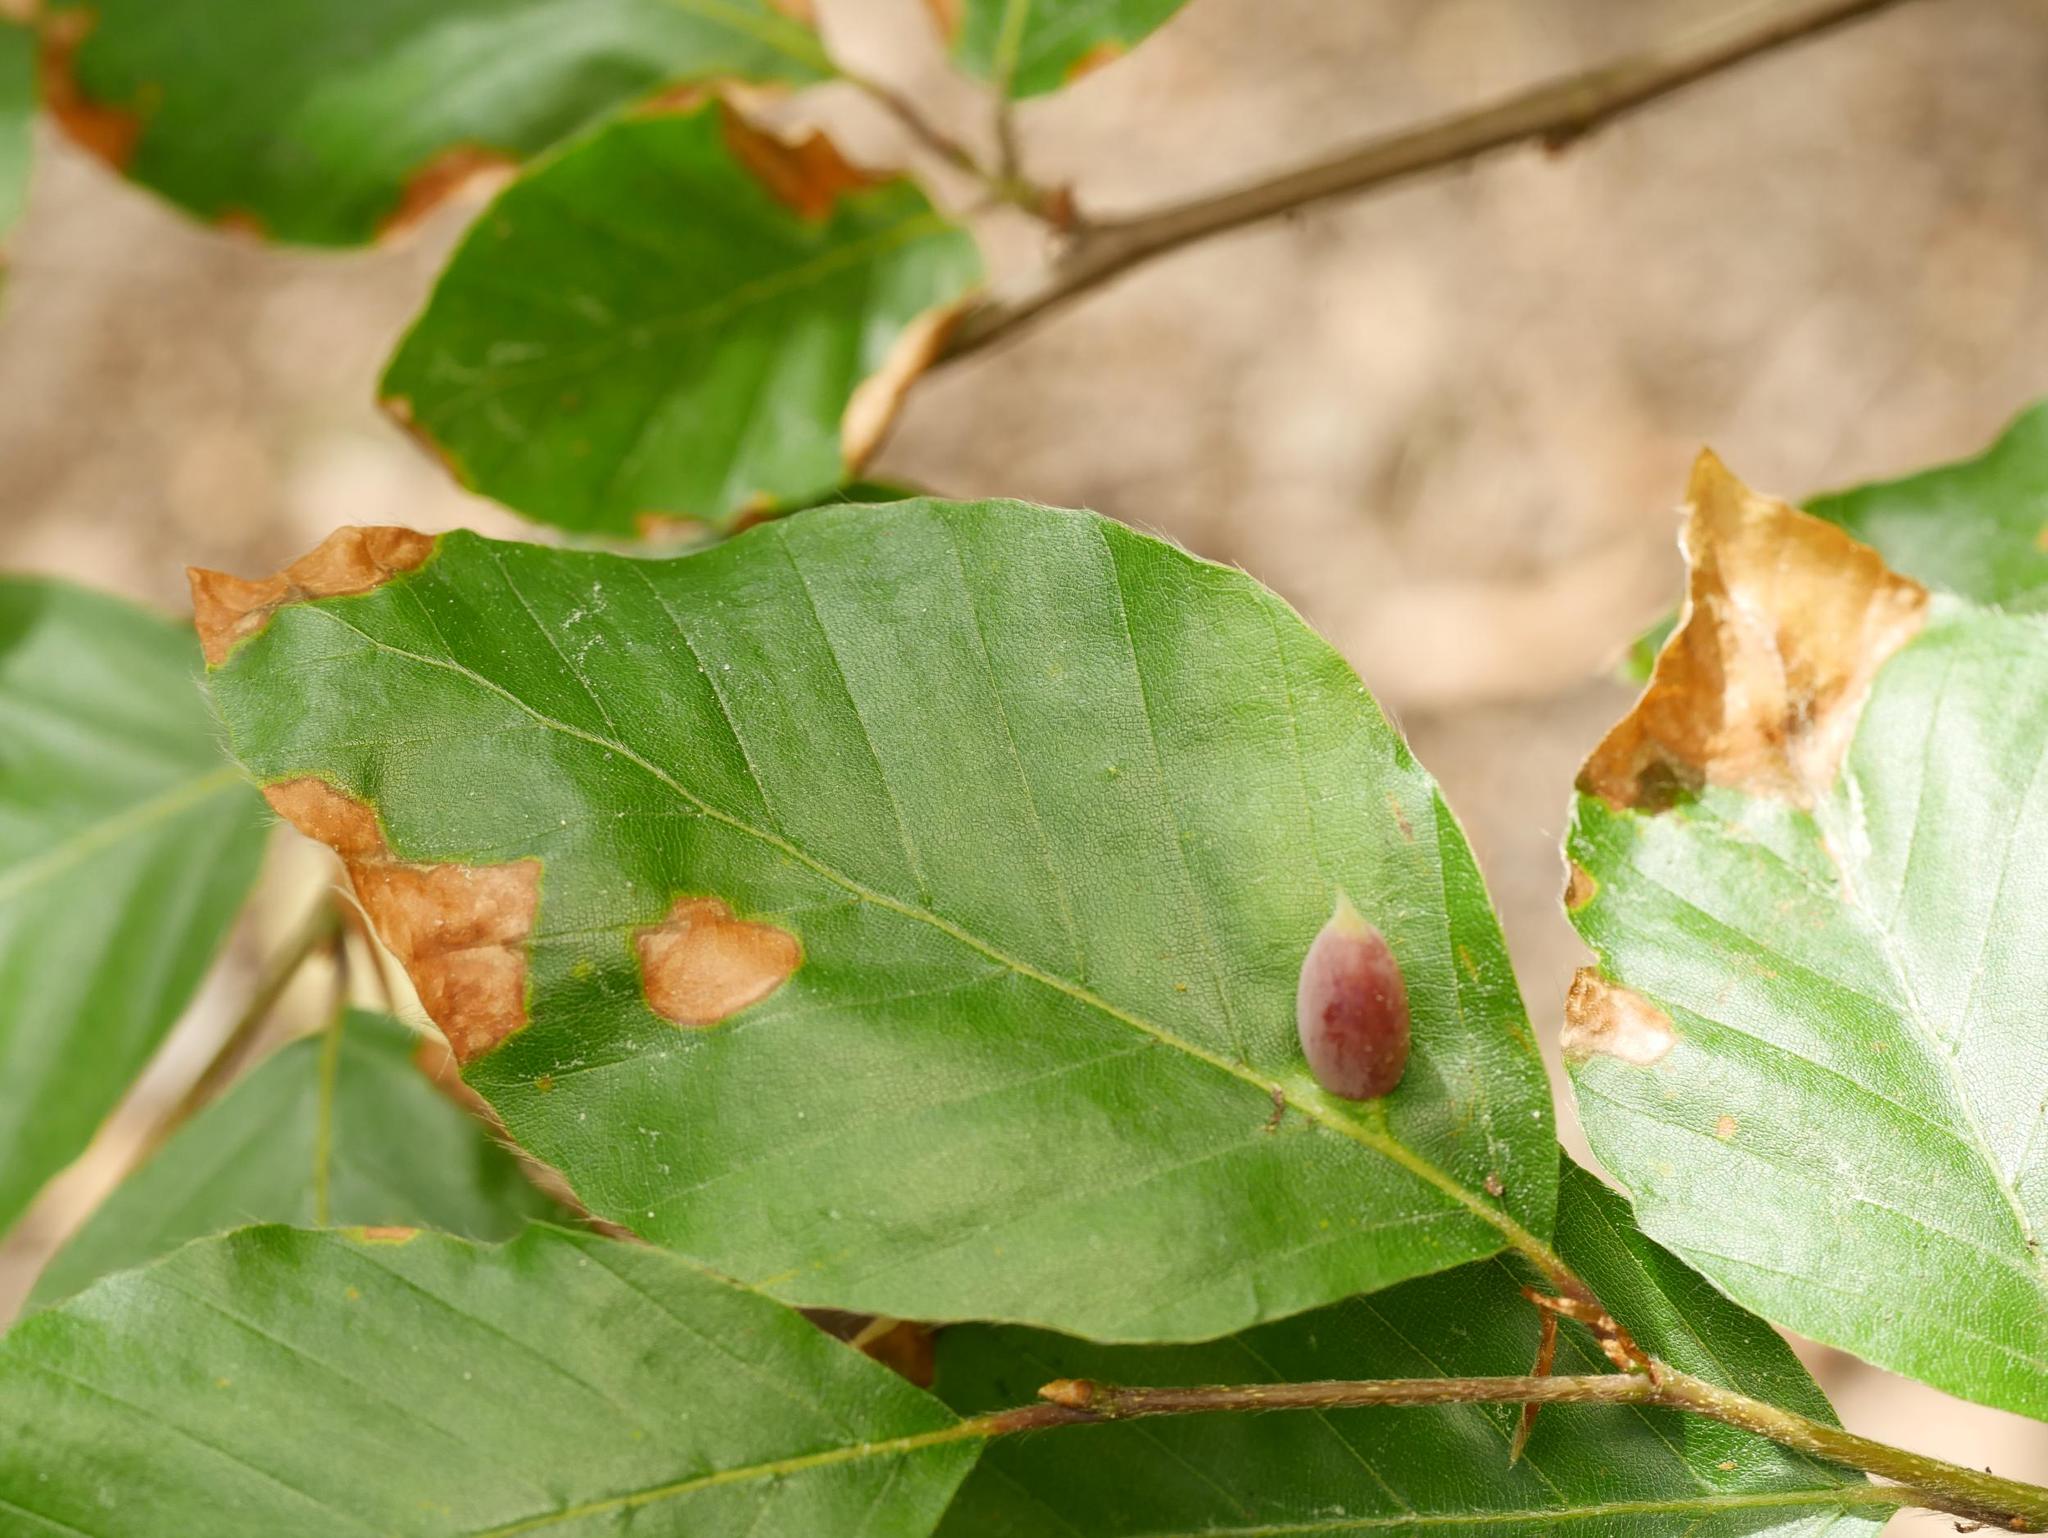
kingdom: Plantae
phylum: Tracheophyta
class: Magnoliopsida
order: Fagales
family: Fagaceae
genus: Fagus
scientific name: Fagus sylvatica
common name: Beech
